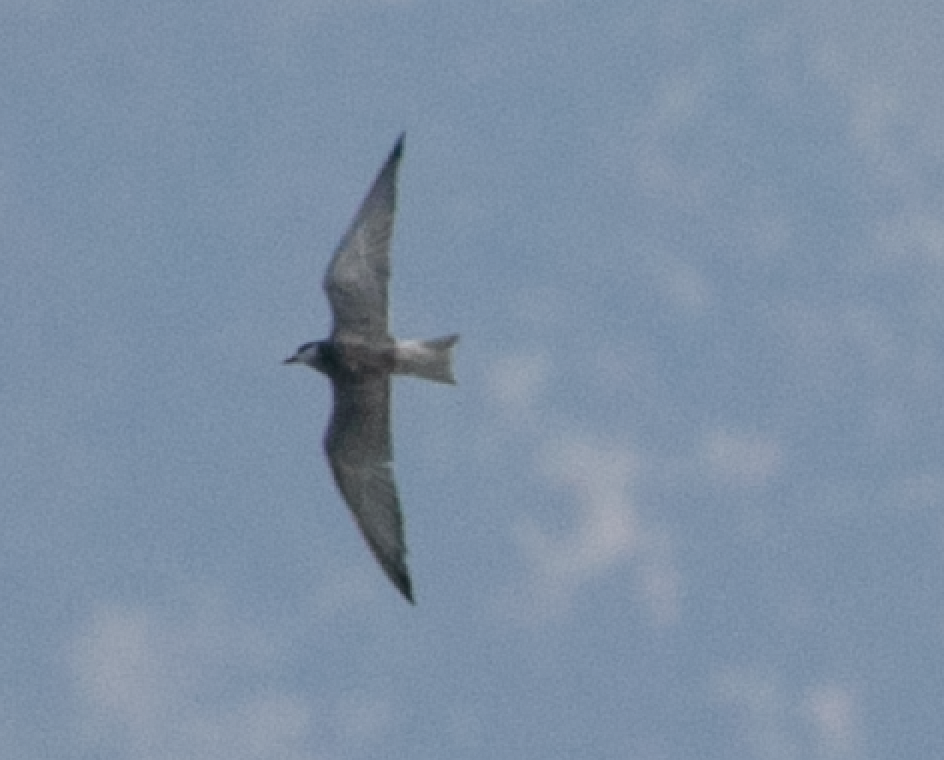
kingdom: Animalia
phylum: Chordata
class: Aves
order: Charadriiformes
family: Laridae
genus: Chlidonias
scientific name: Chlidonias hybrida
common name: Whiskered tern
